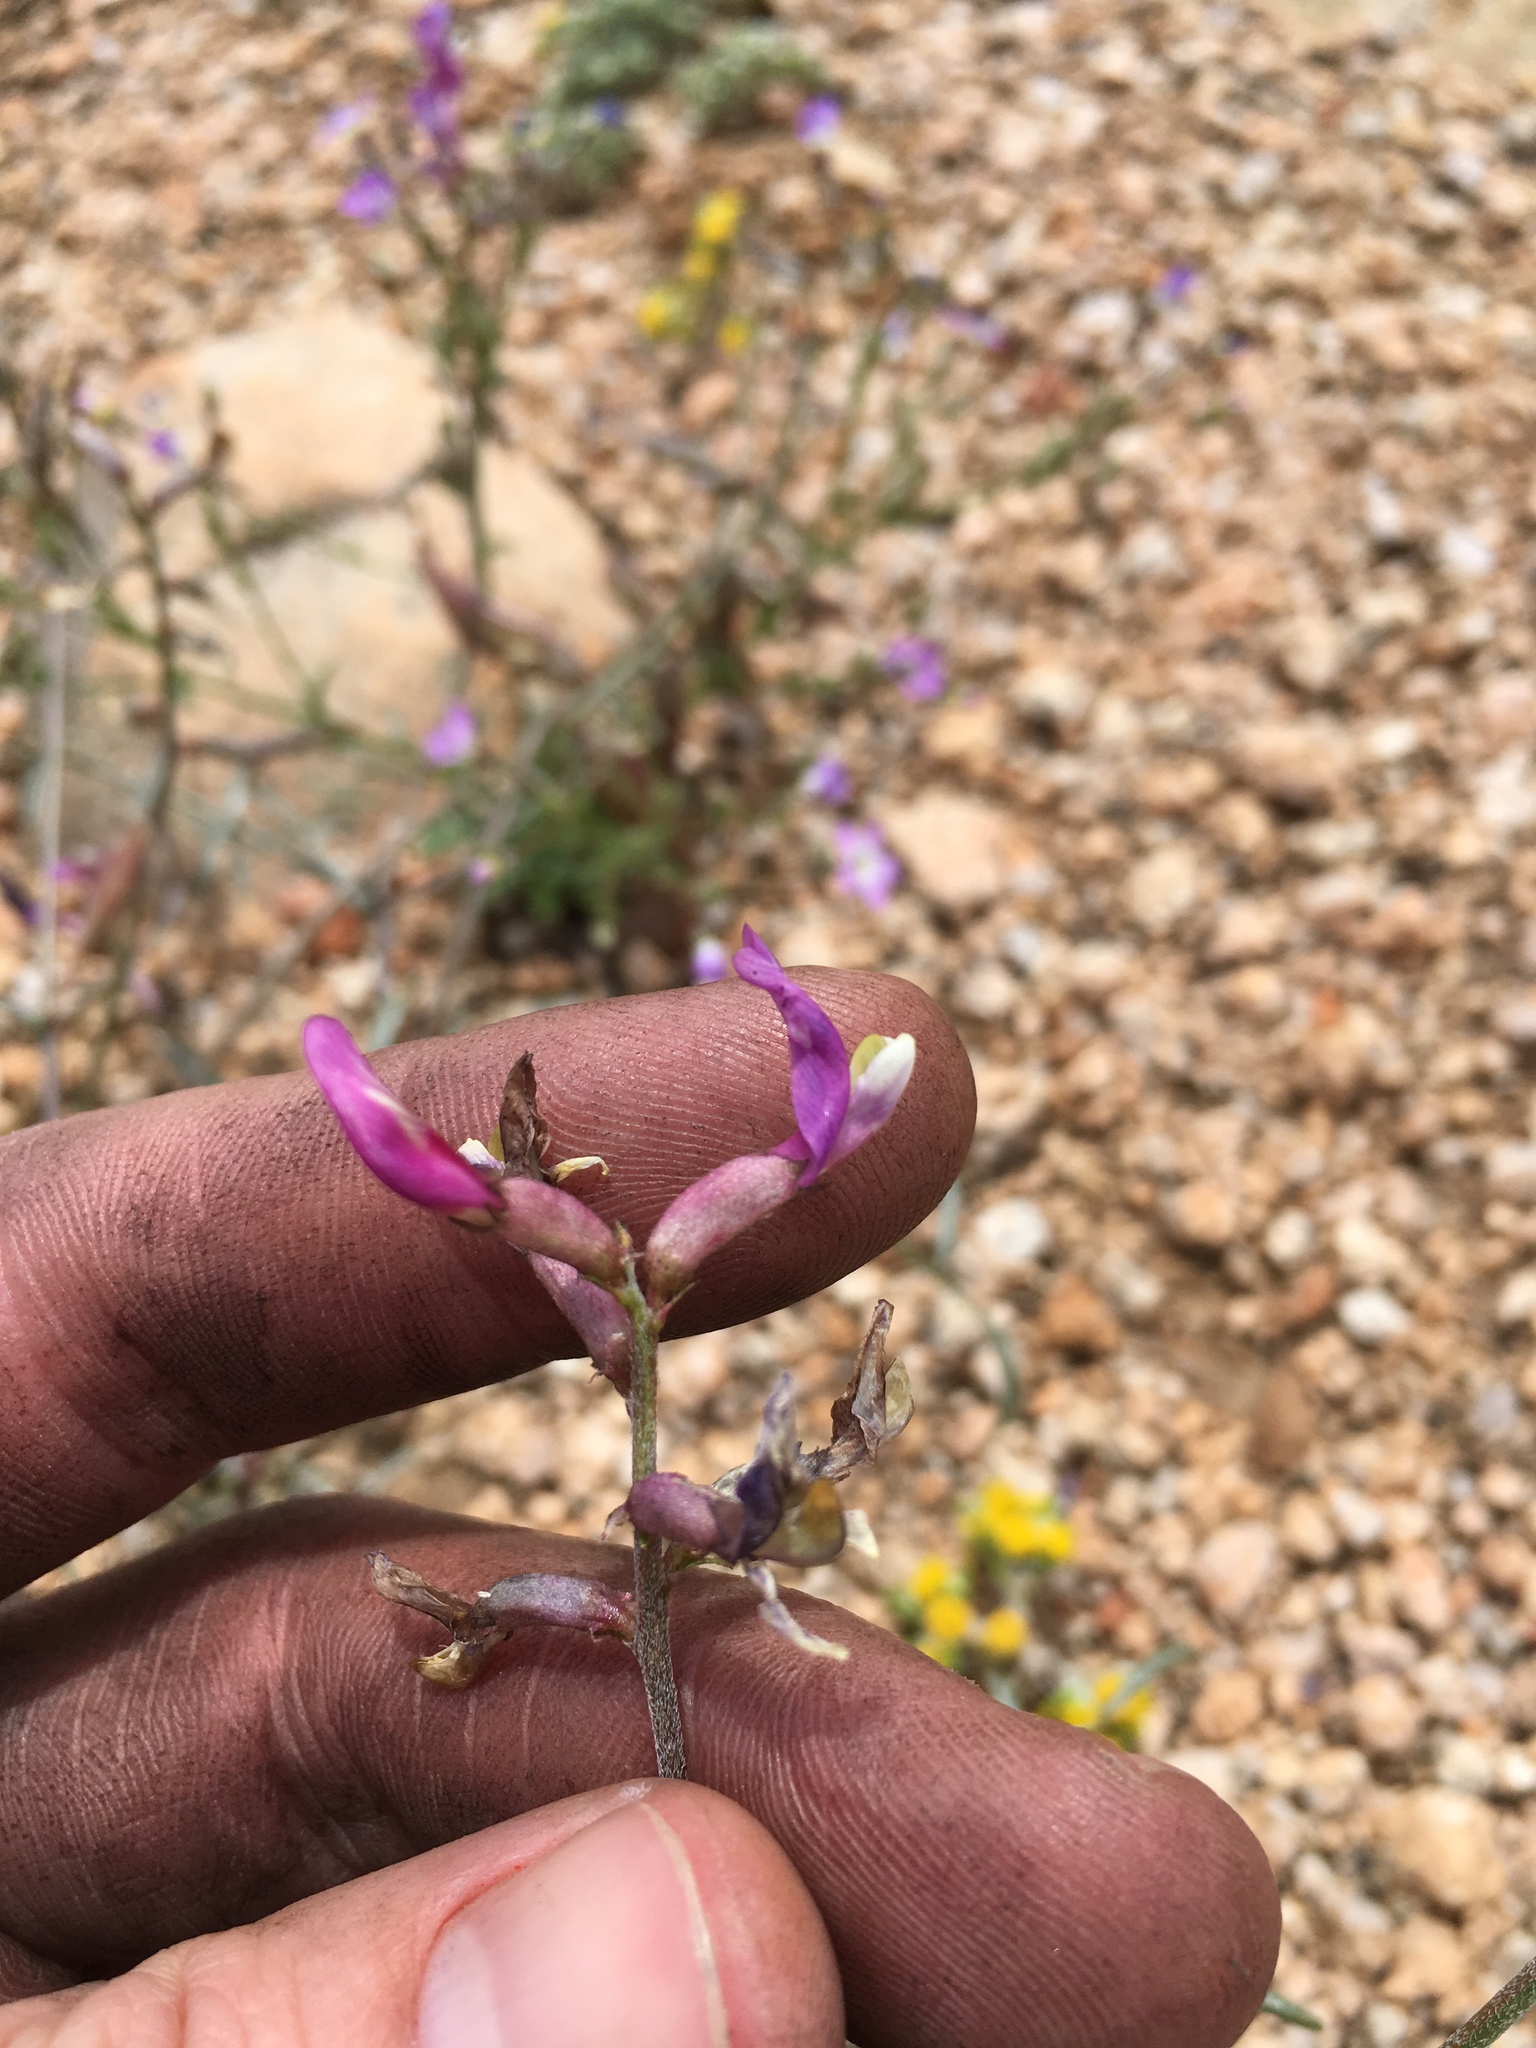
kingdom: Plantae
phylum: Tracheophyta
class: Magnoliopsida
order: Fabales
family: Fabaceae
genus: Astragalus
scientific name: Astragalus casei
